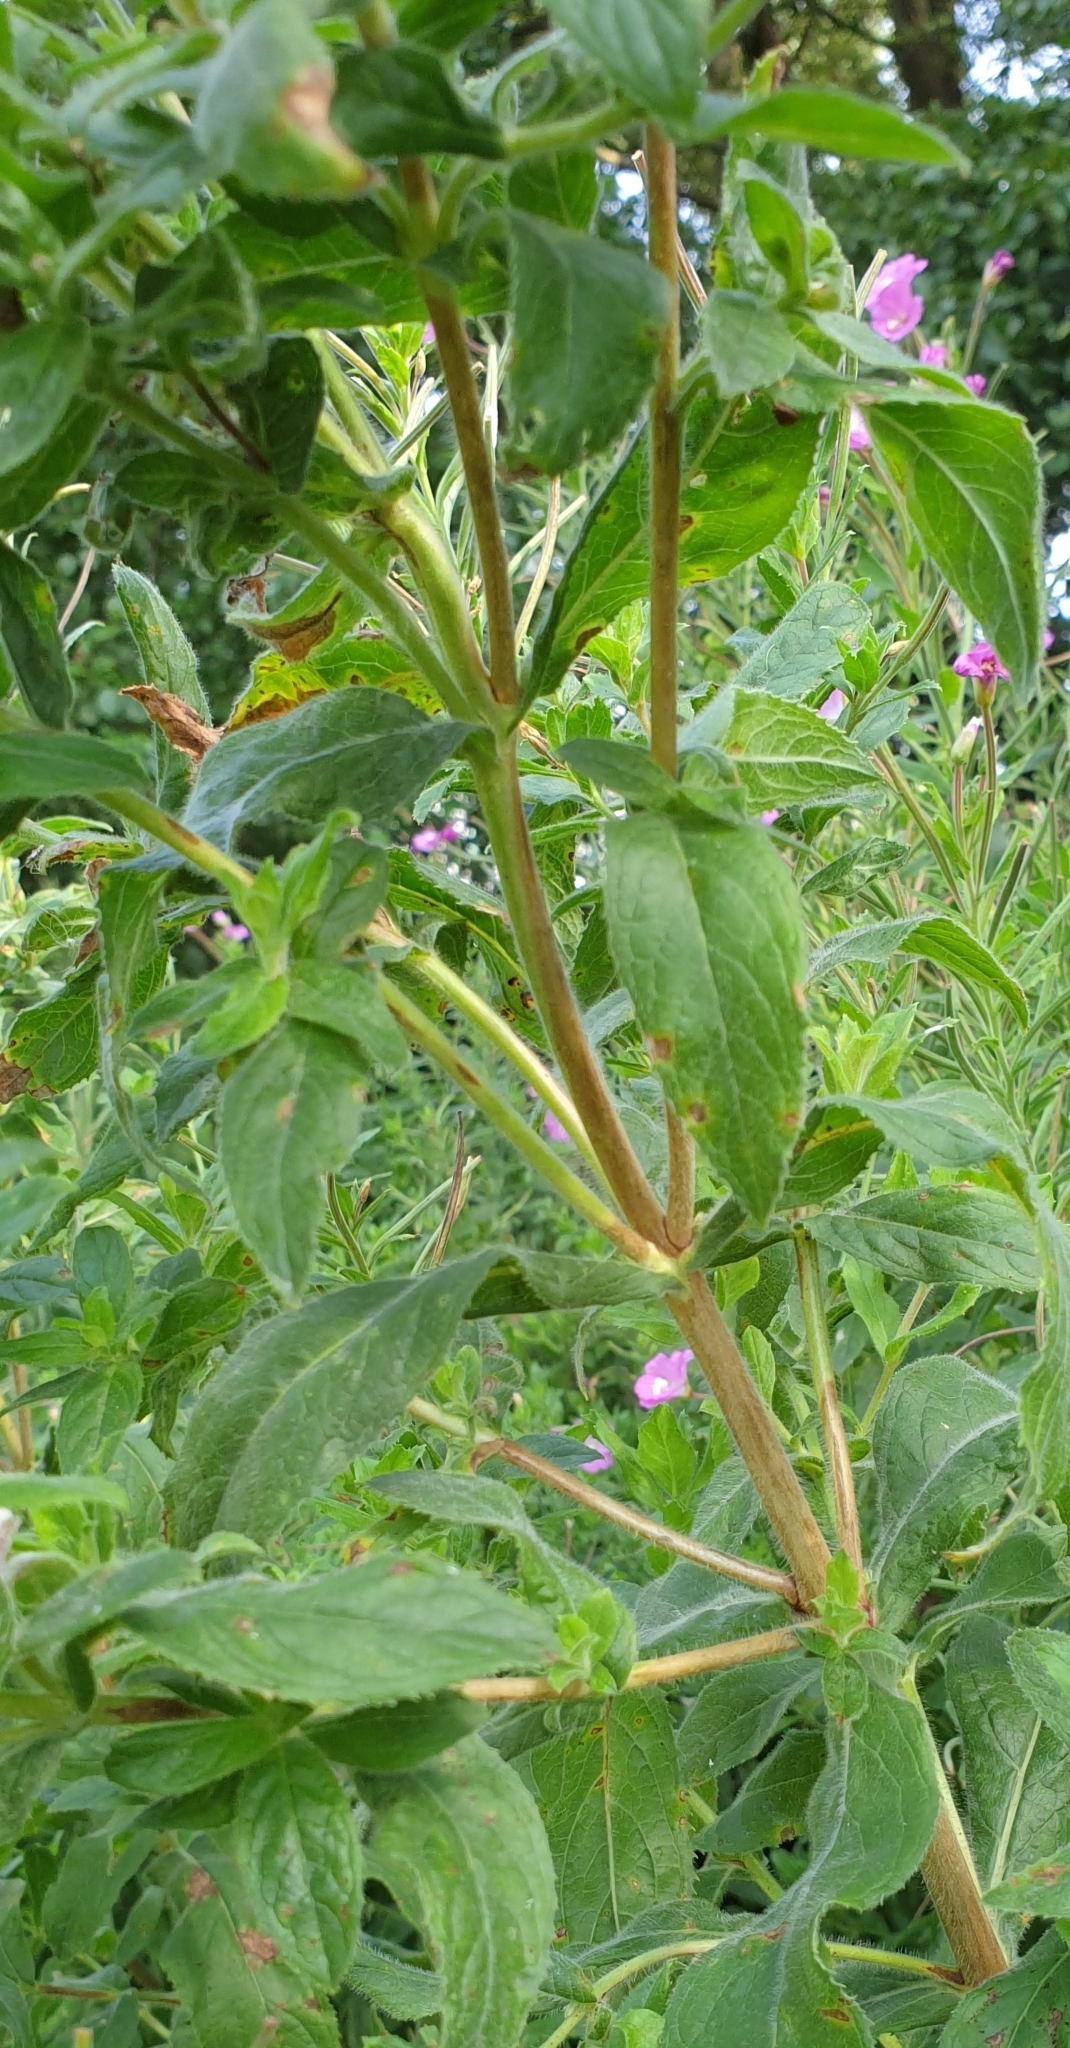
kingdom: Plantae
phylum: Tracheophyta
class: Magnoliopsida
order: Myrtales
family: Onagraceae
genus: Epilobium
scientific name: Epilobium hirsutum
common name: Great willowherb
